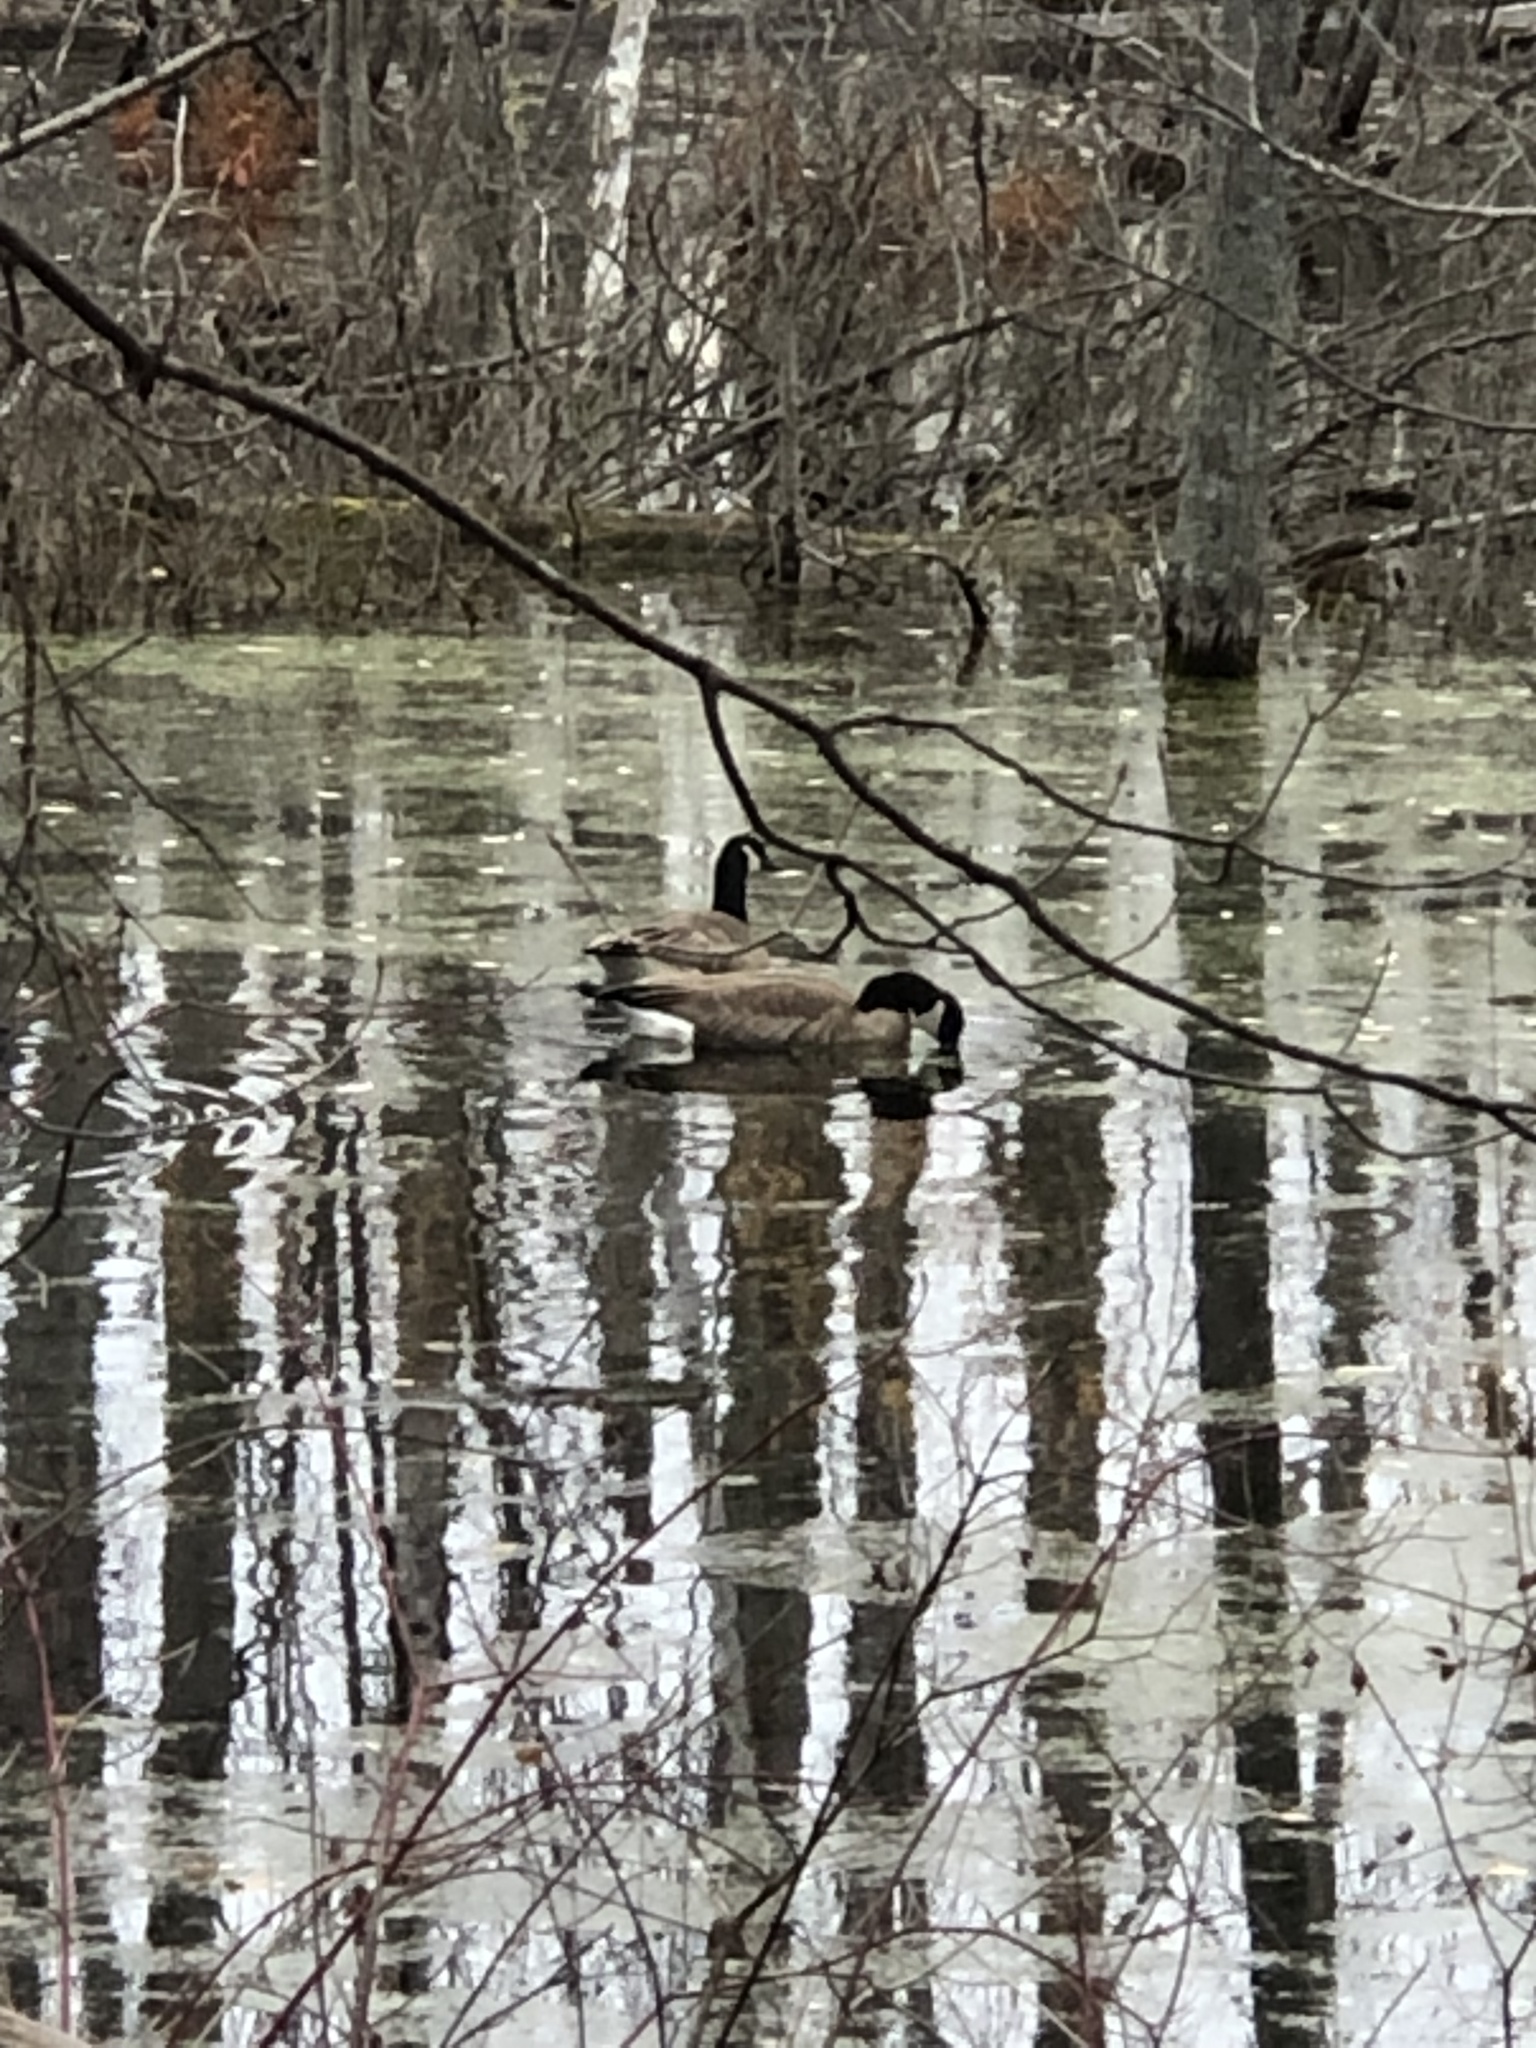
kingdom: Animalia
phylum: Chordata
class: Aves
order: Anseriformes
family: Anatidae
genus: Branta
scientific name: Branta canadensis
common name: Canada goose
